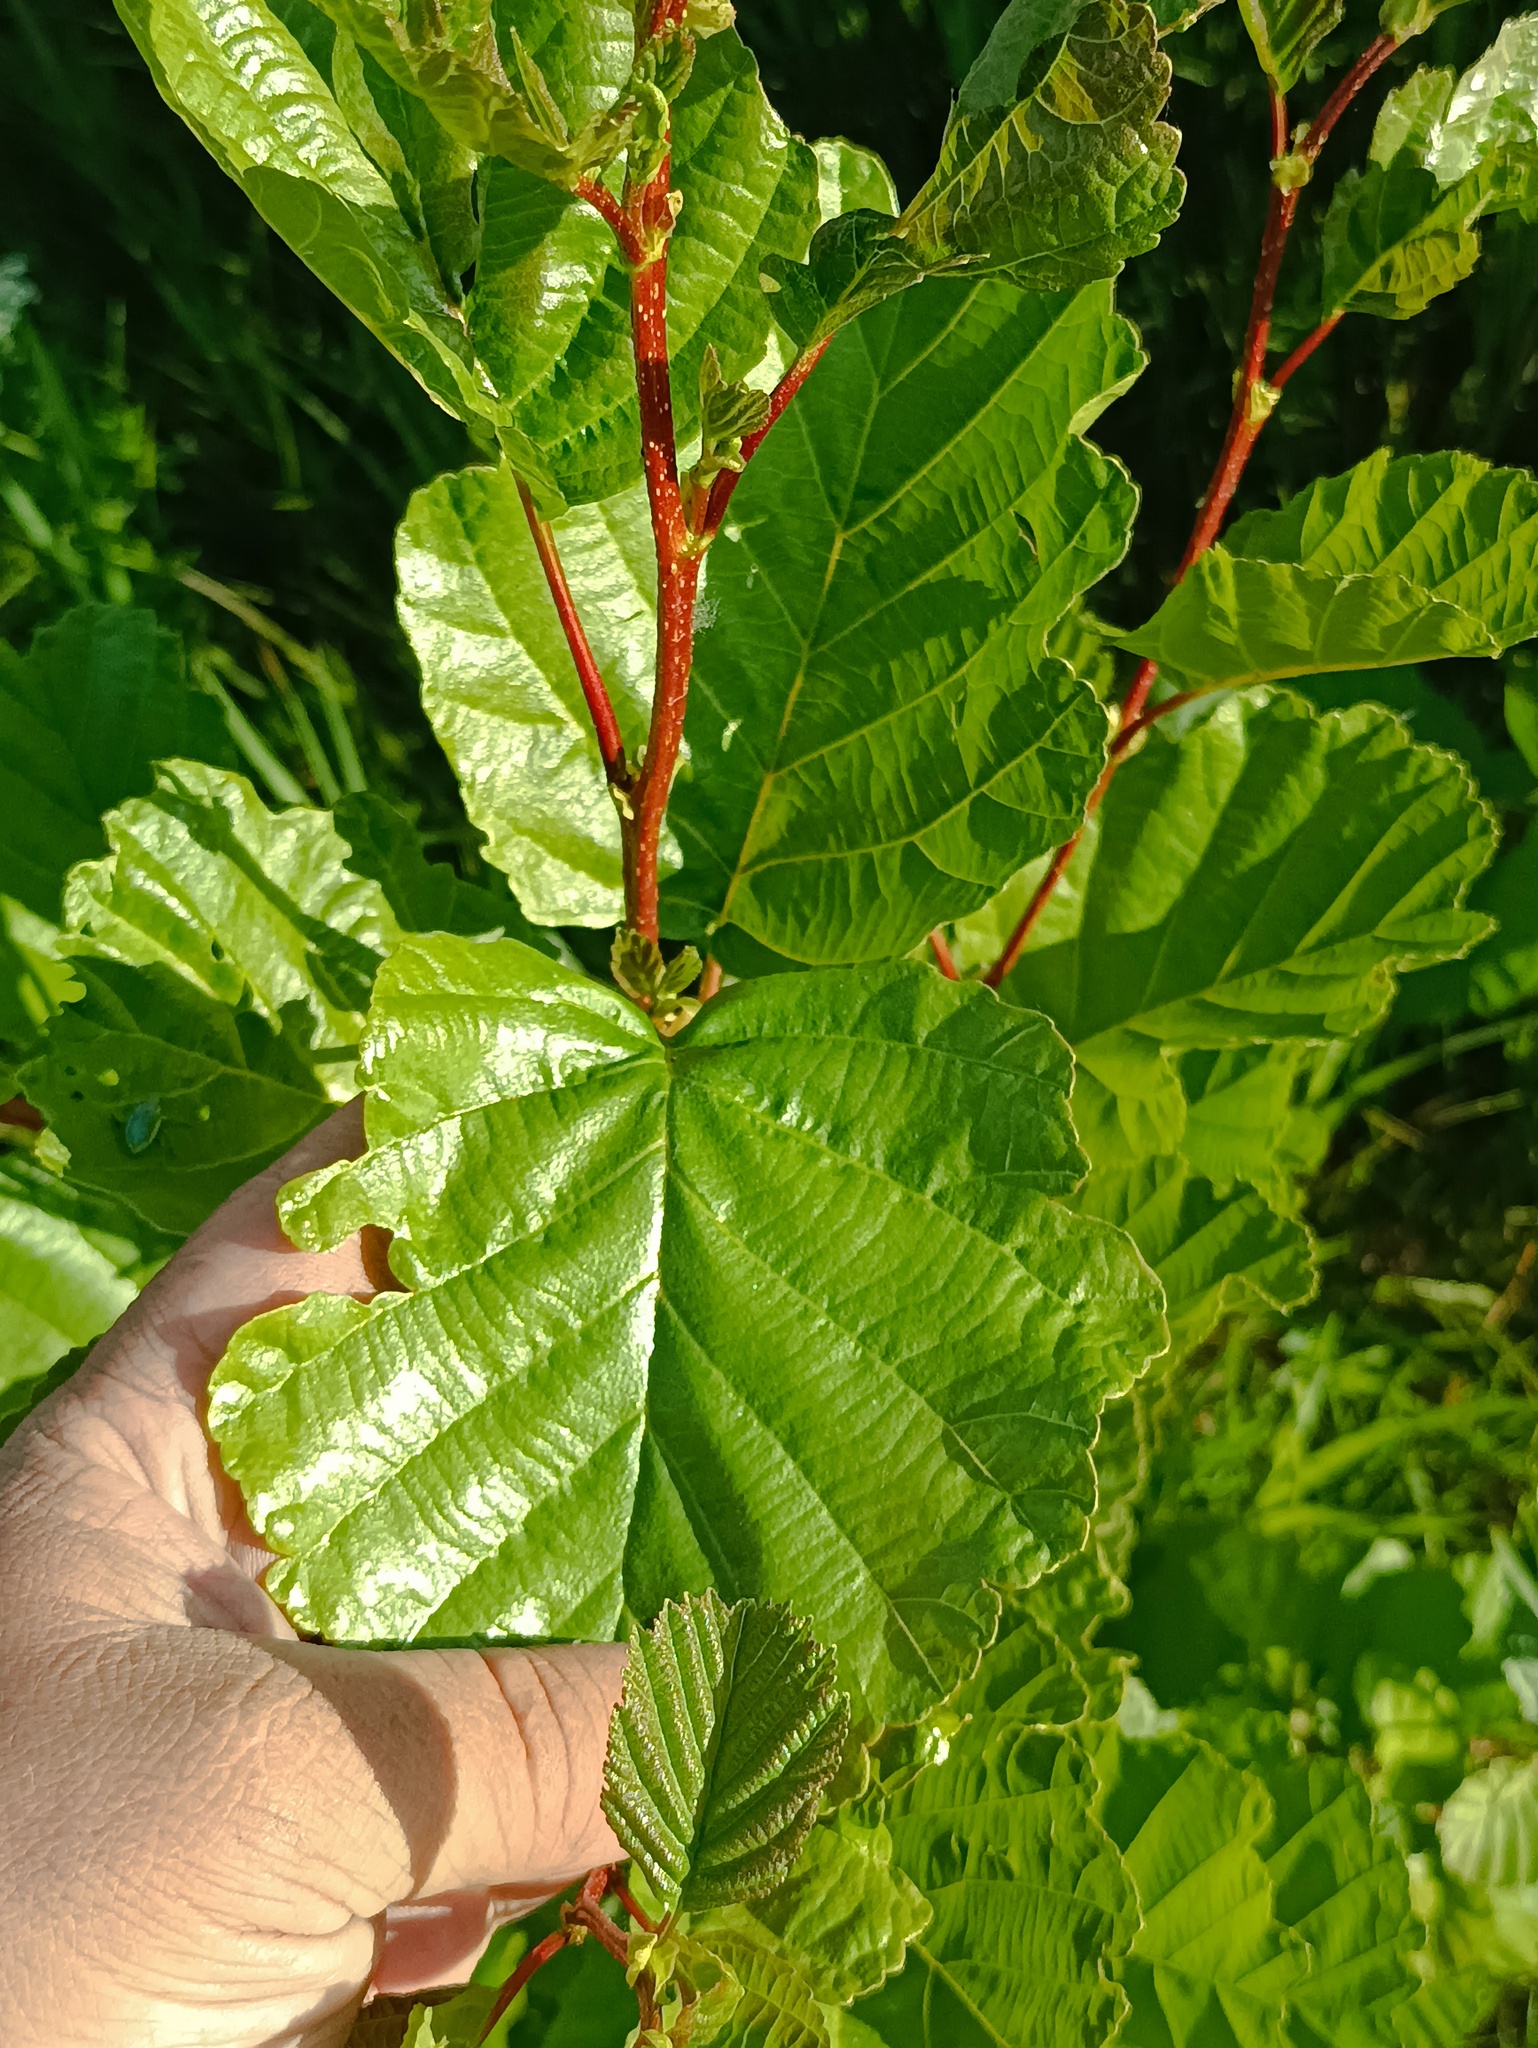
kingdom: Plantae
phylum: Tracheophyta
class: Magnoliopsida
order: Fagales
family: Betulaceae
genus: Alnus
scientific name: Alnus glutinosa
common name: Black alder
